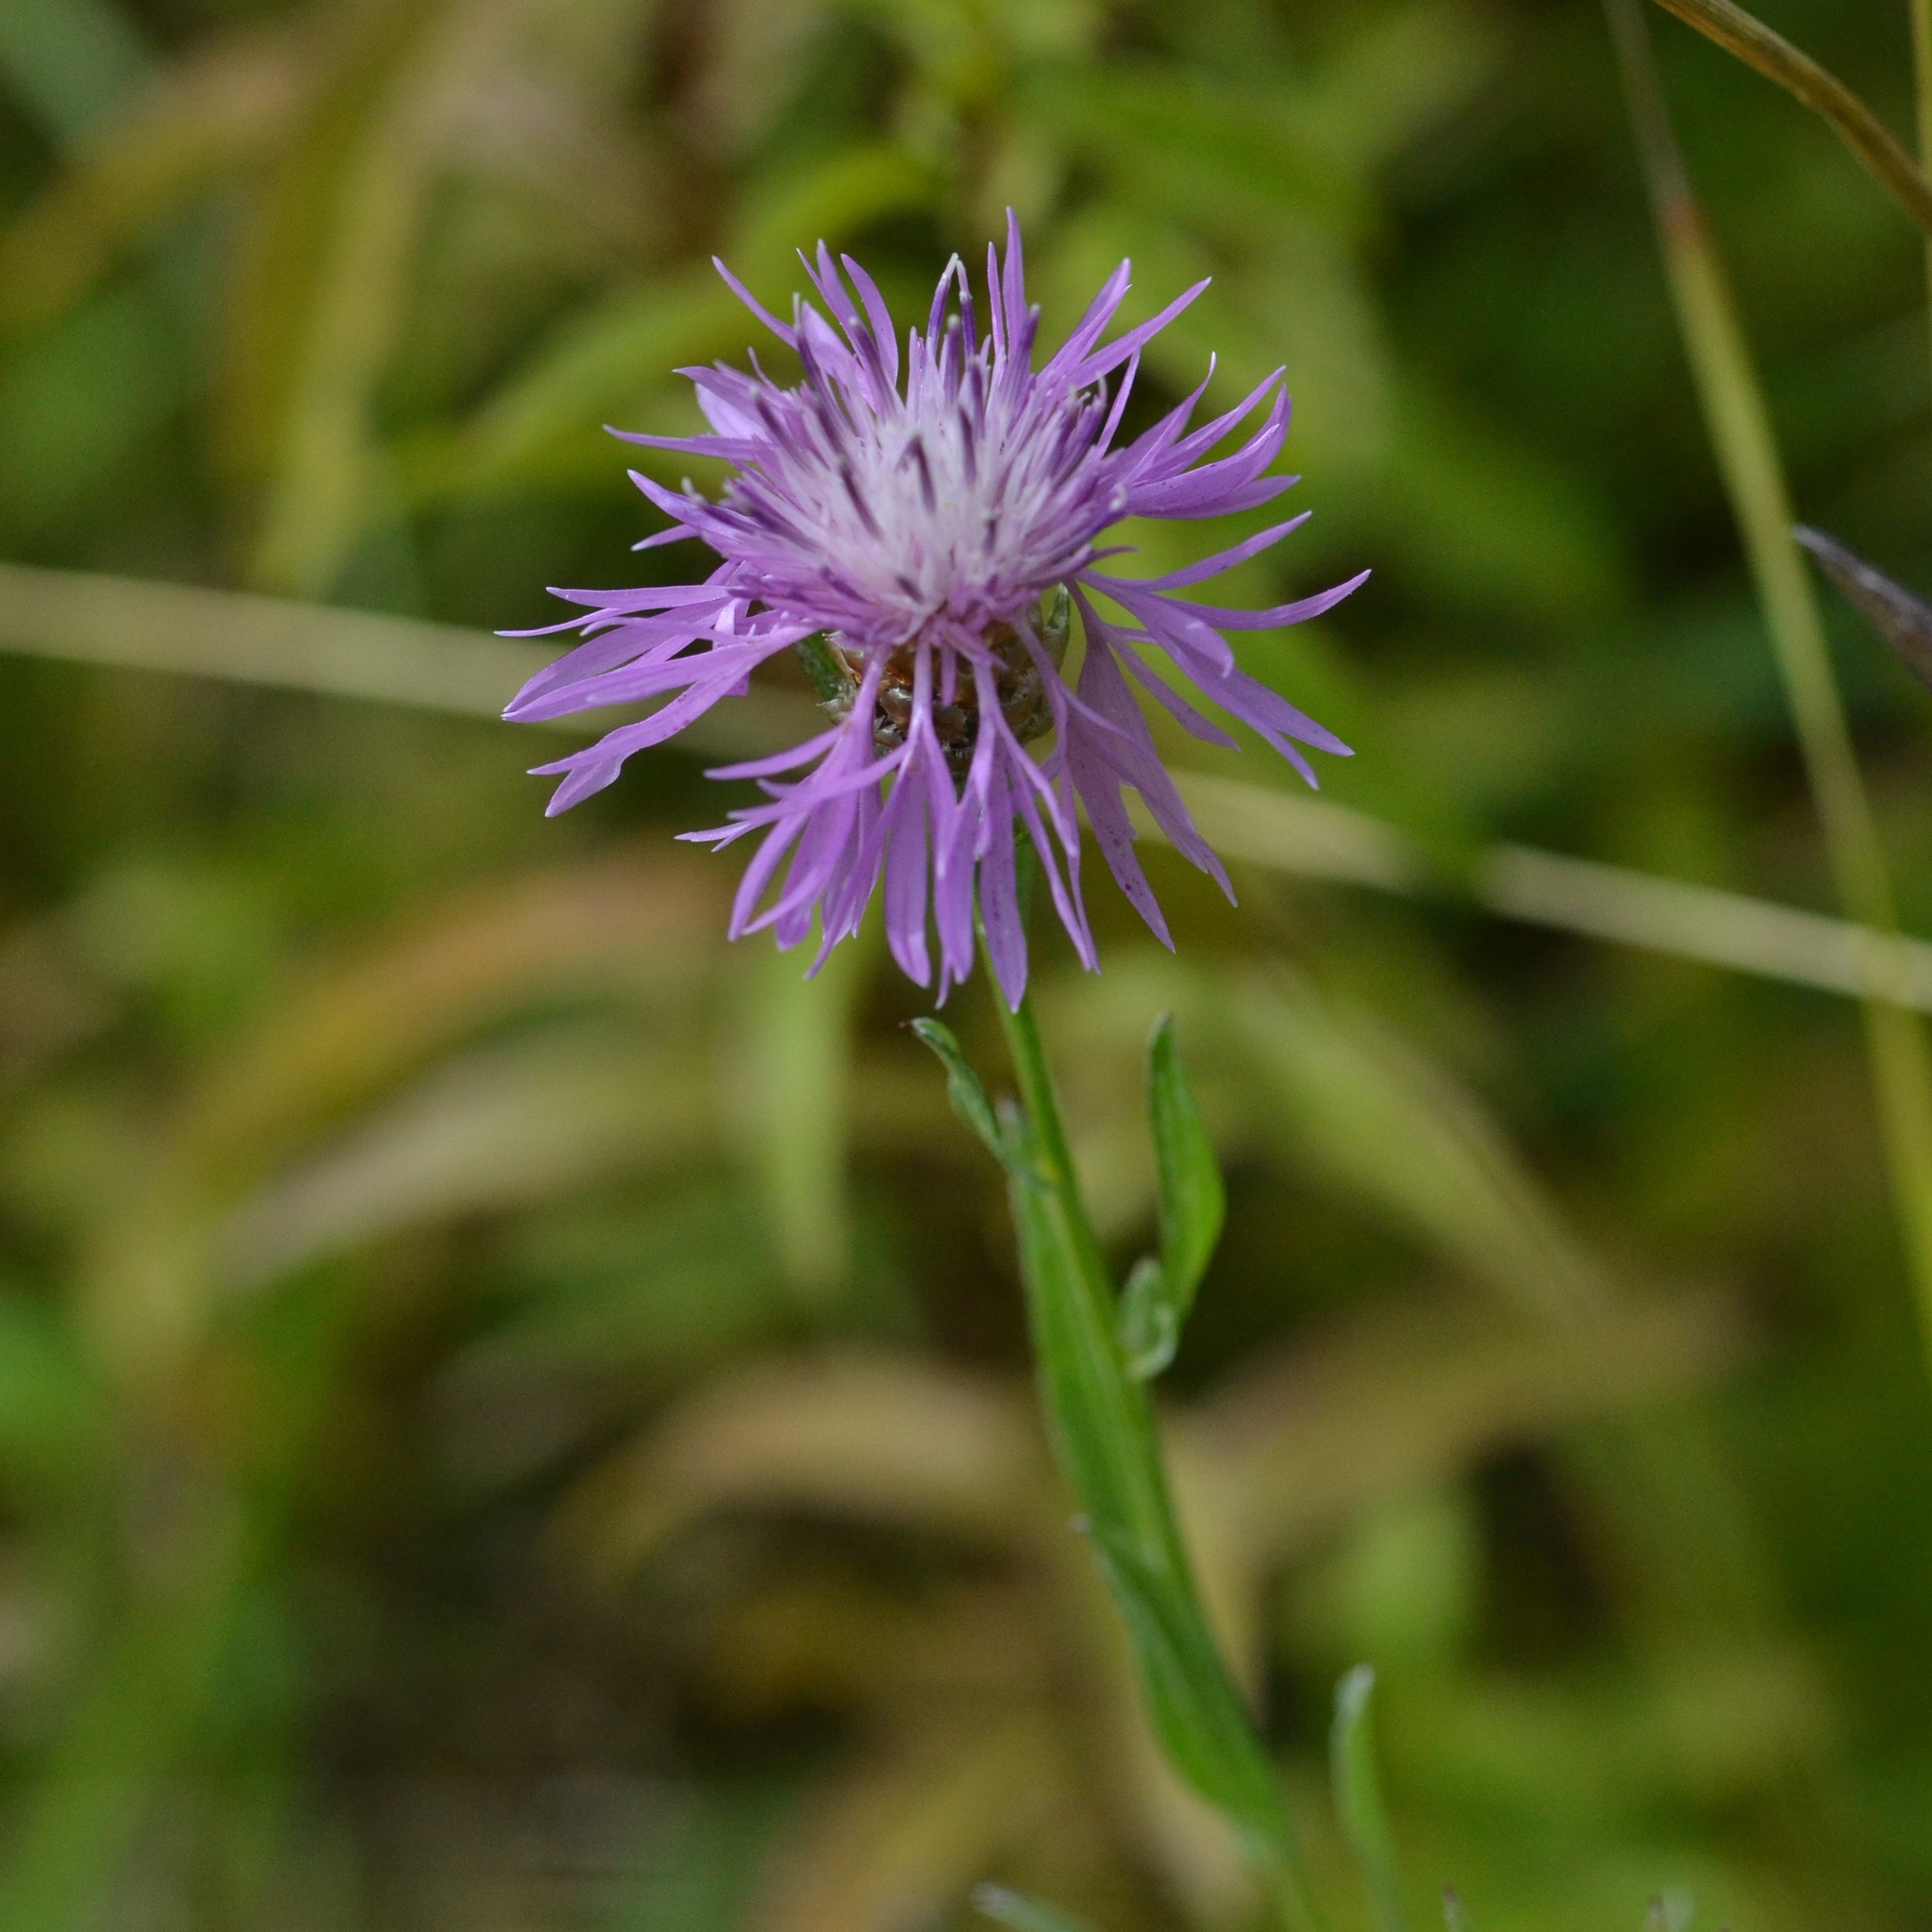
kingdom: Plantae
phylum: Tracheophyta
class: Magnoliopsida
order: Asterales
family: Asteraceae
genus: Centaurea
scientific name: Centaurea jacea
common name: Brown knapweed
